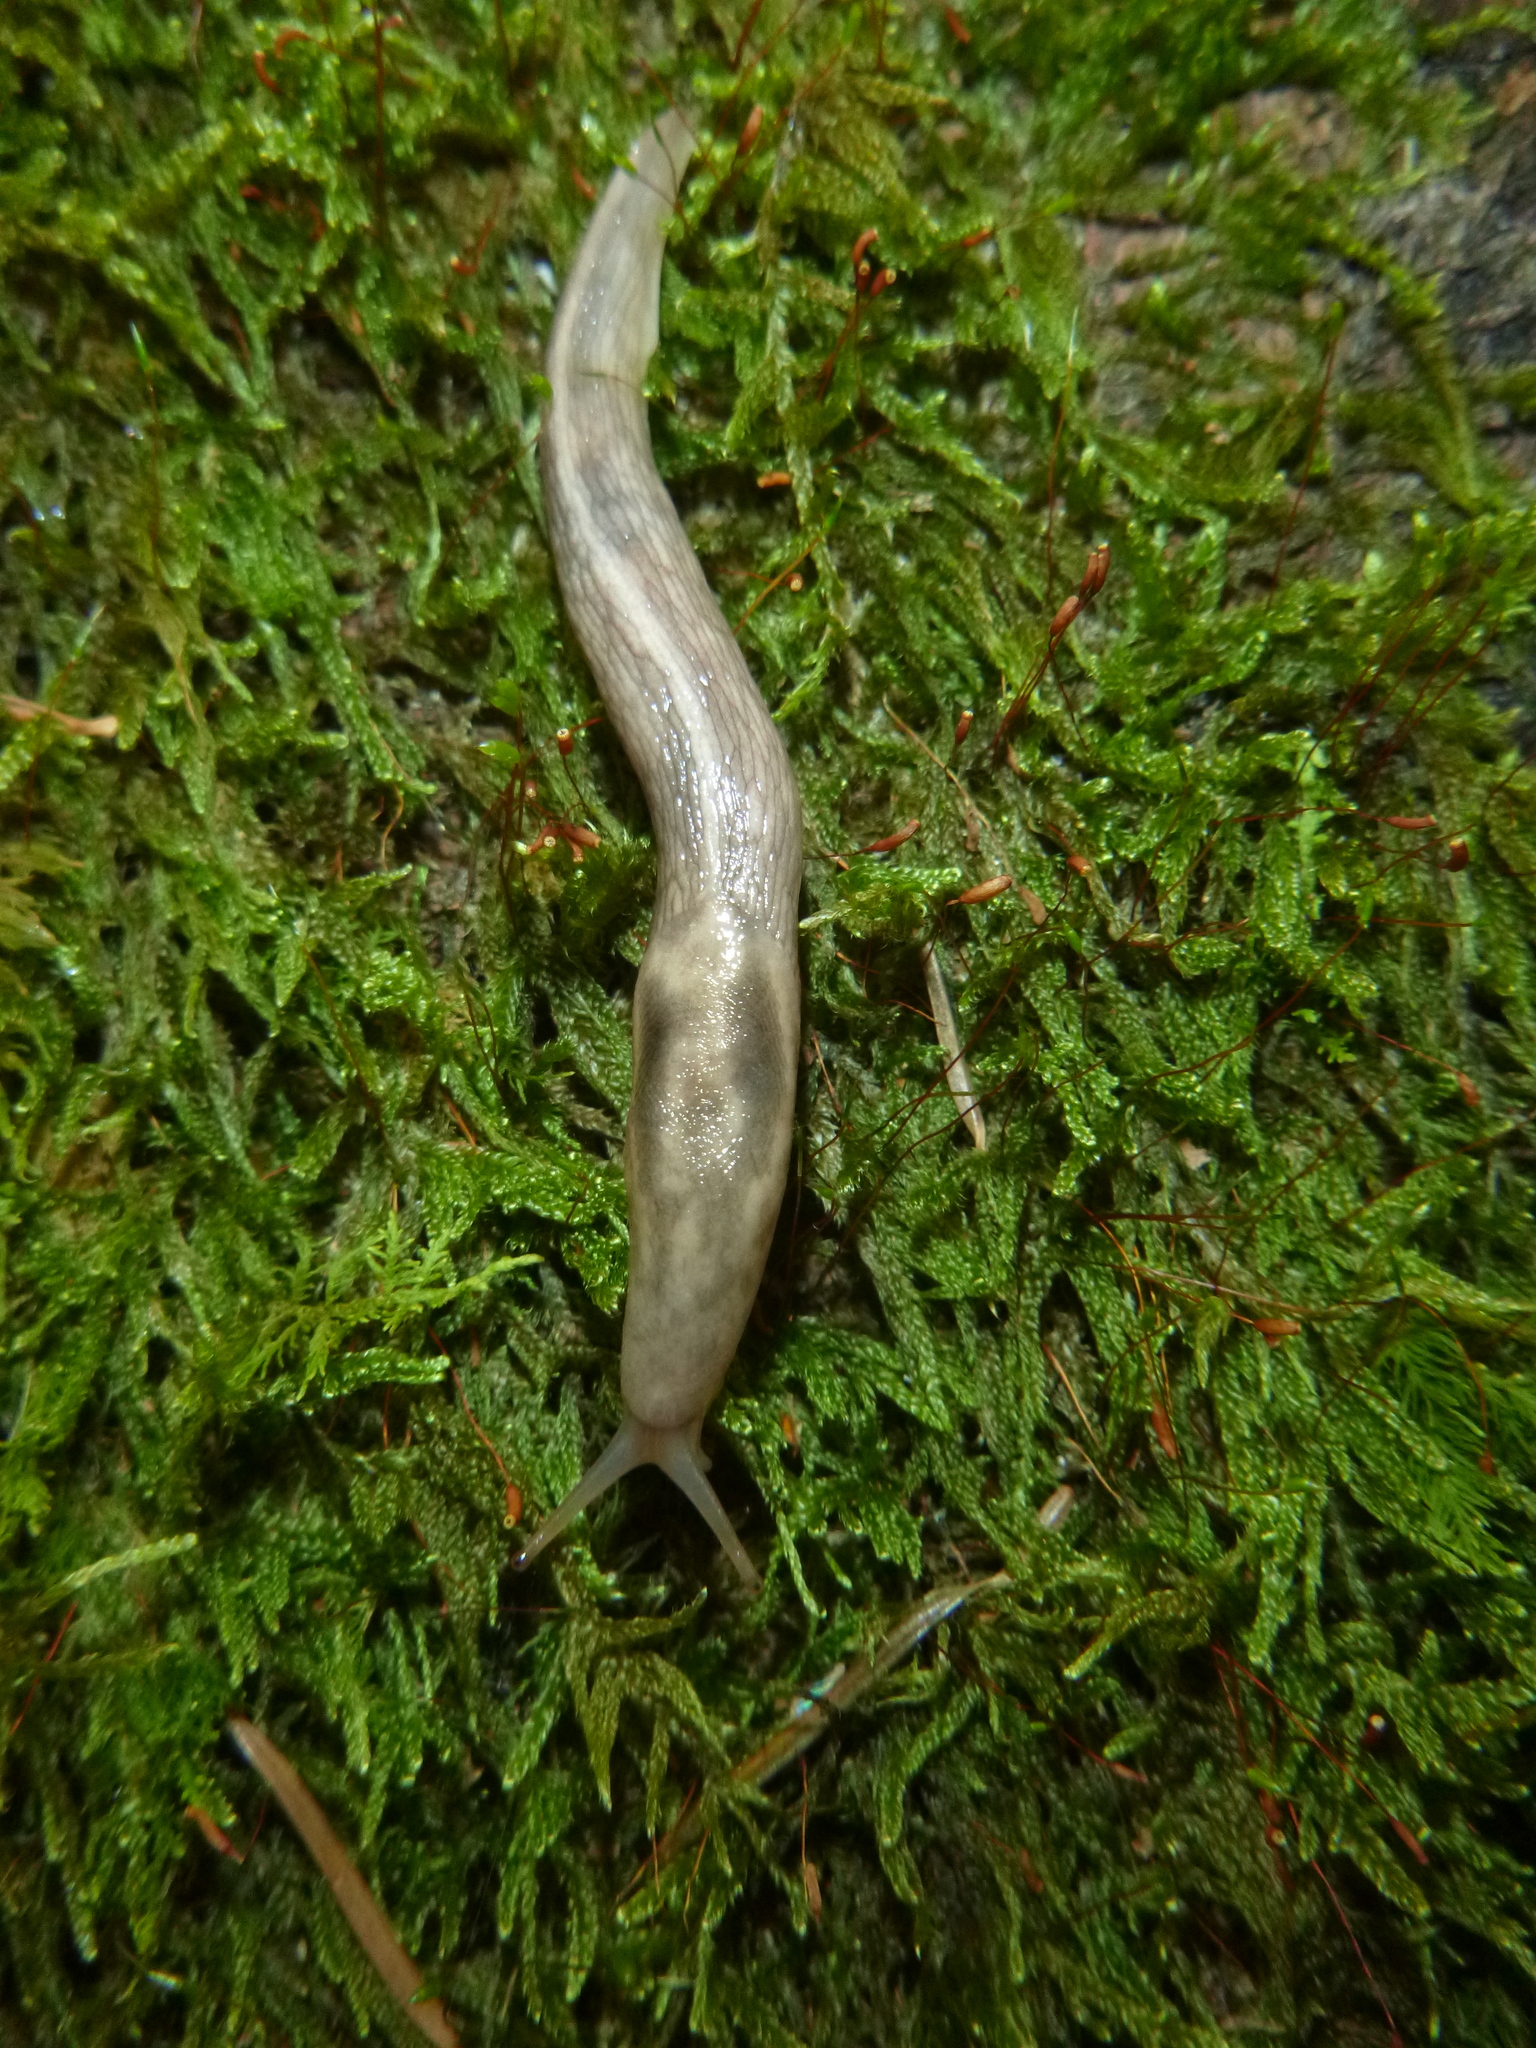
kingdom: Animalia
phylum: Mollusca
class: Gastropoda
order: Stylommatophora
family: Limacidae
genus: Lehmannia
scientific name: Lehmannia marginata
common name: Tree slug
